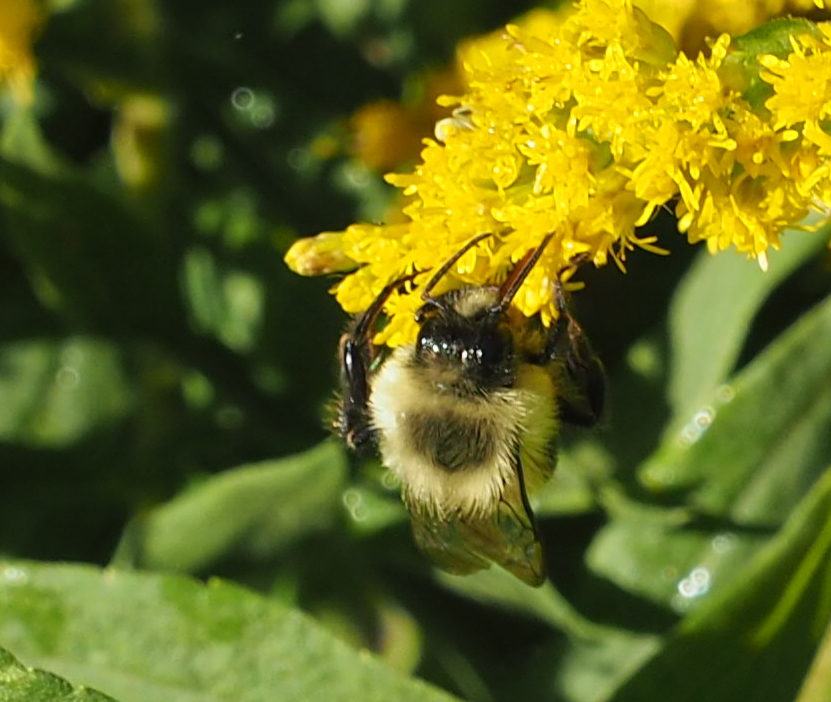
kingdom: Animalia
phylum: Arthropoda
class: Insecta
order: Hymenoptera
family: Apidae
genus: Bombus
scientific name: Bombus impatiens
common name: Common eastern bumble bee
